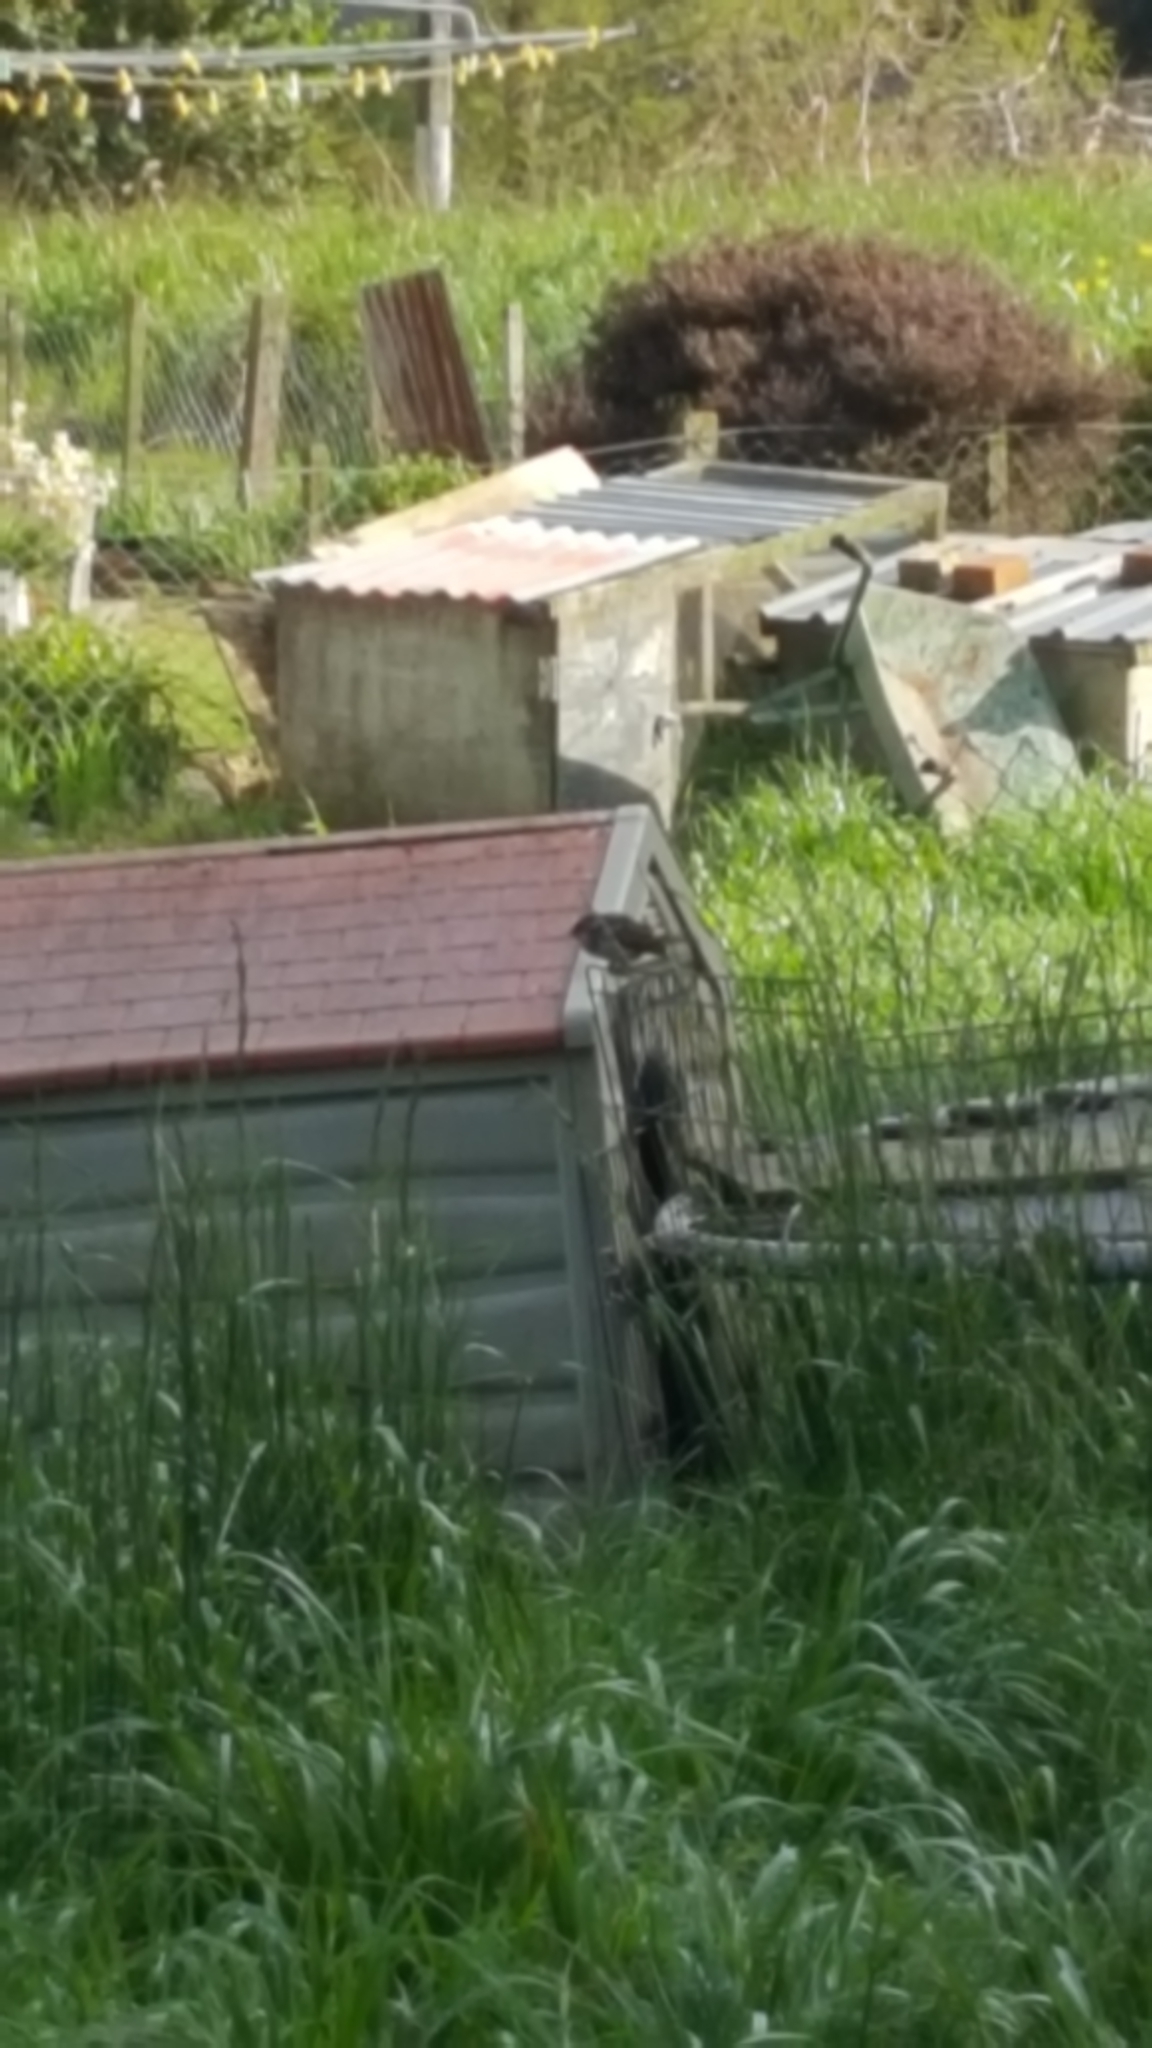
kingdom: Animalia
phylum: Chordata
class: Aves
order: Passeriformes
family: Passeridae
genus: Passer
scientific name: Passer domesticus
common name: House sparrow
